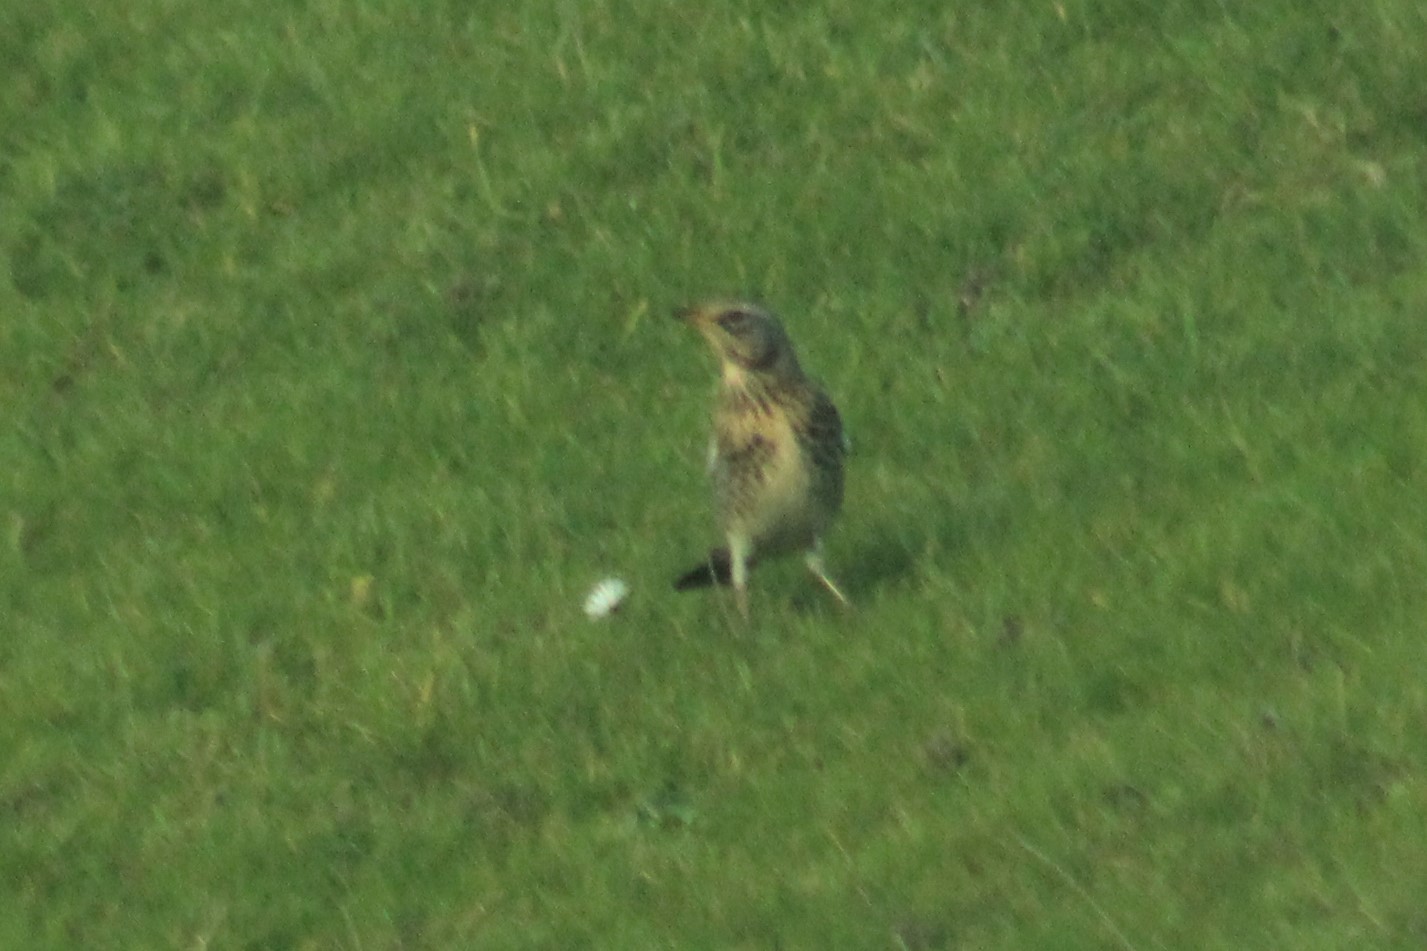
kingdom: Animalia
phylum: Chordata
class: Aves
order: Passeriformes
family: Turdidae
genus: Turdus
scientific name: Turdus pilaris
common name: Fieldfare
